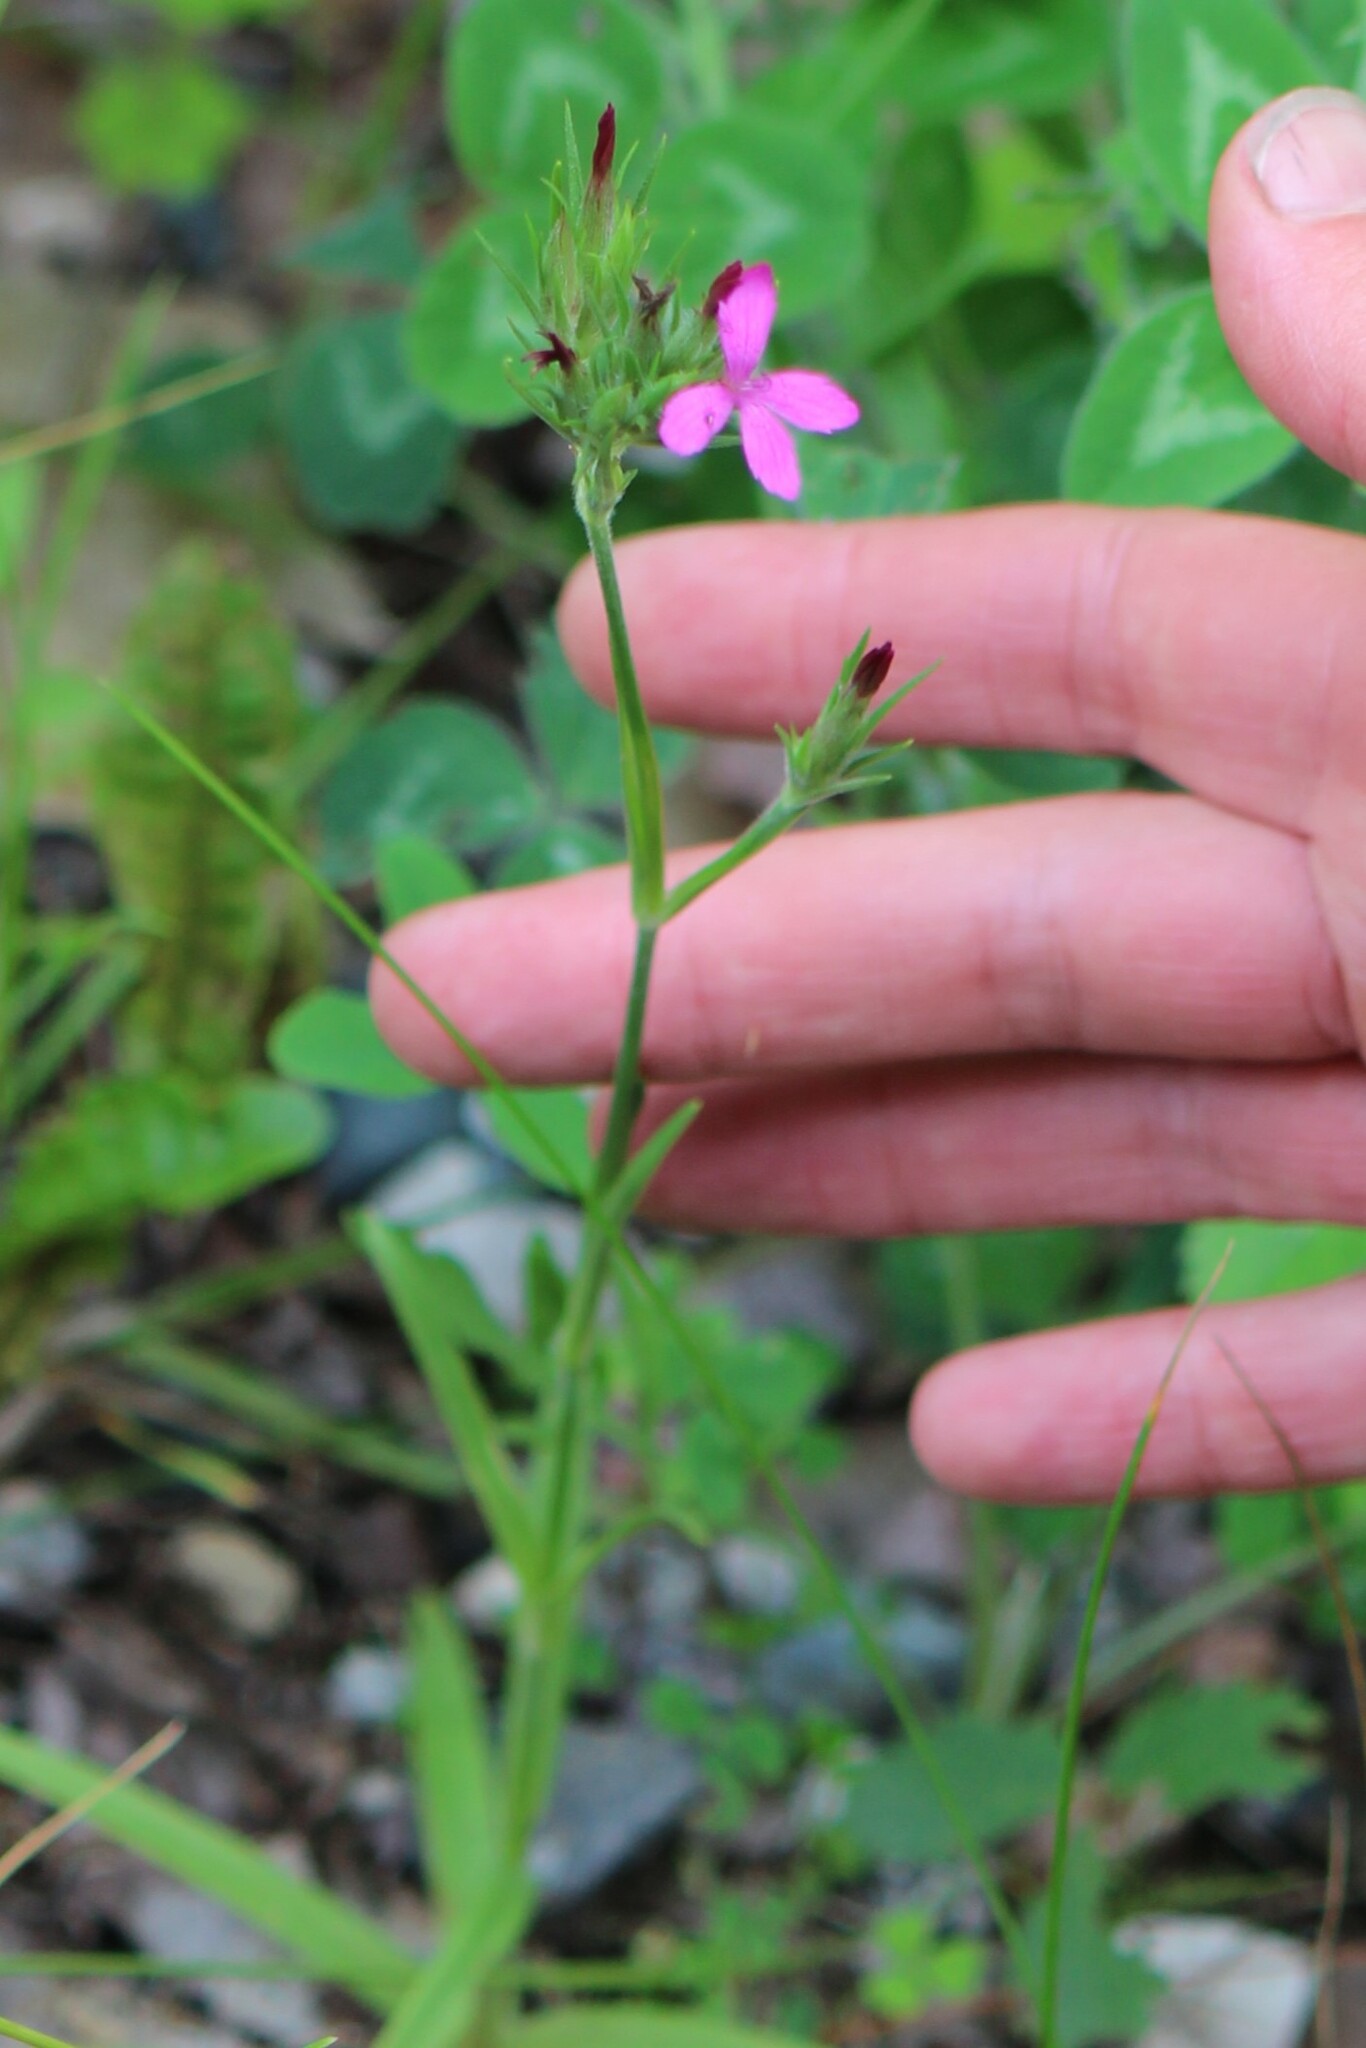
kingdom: Plantae
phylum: Tracheophyta
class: Magnoliopsida
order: Caryophyllales
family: Caryophyllaceae
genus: Dianthus
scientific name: Dianthus armeria
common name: Deptford pink
